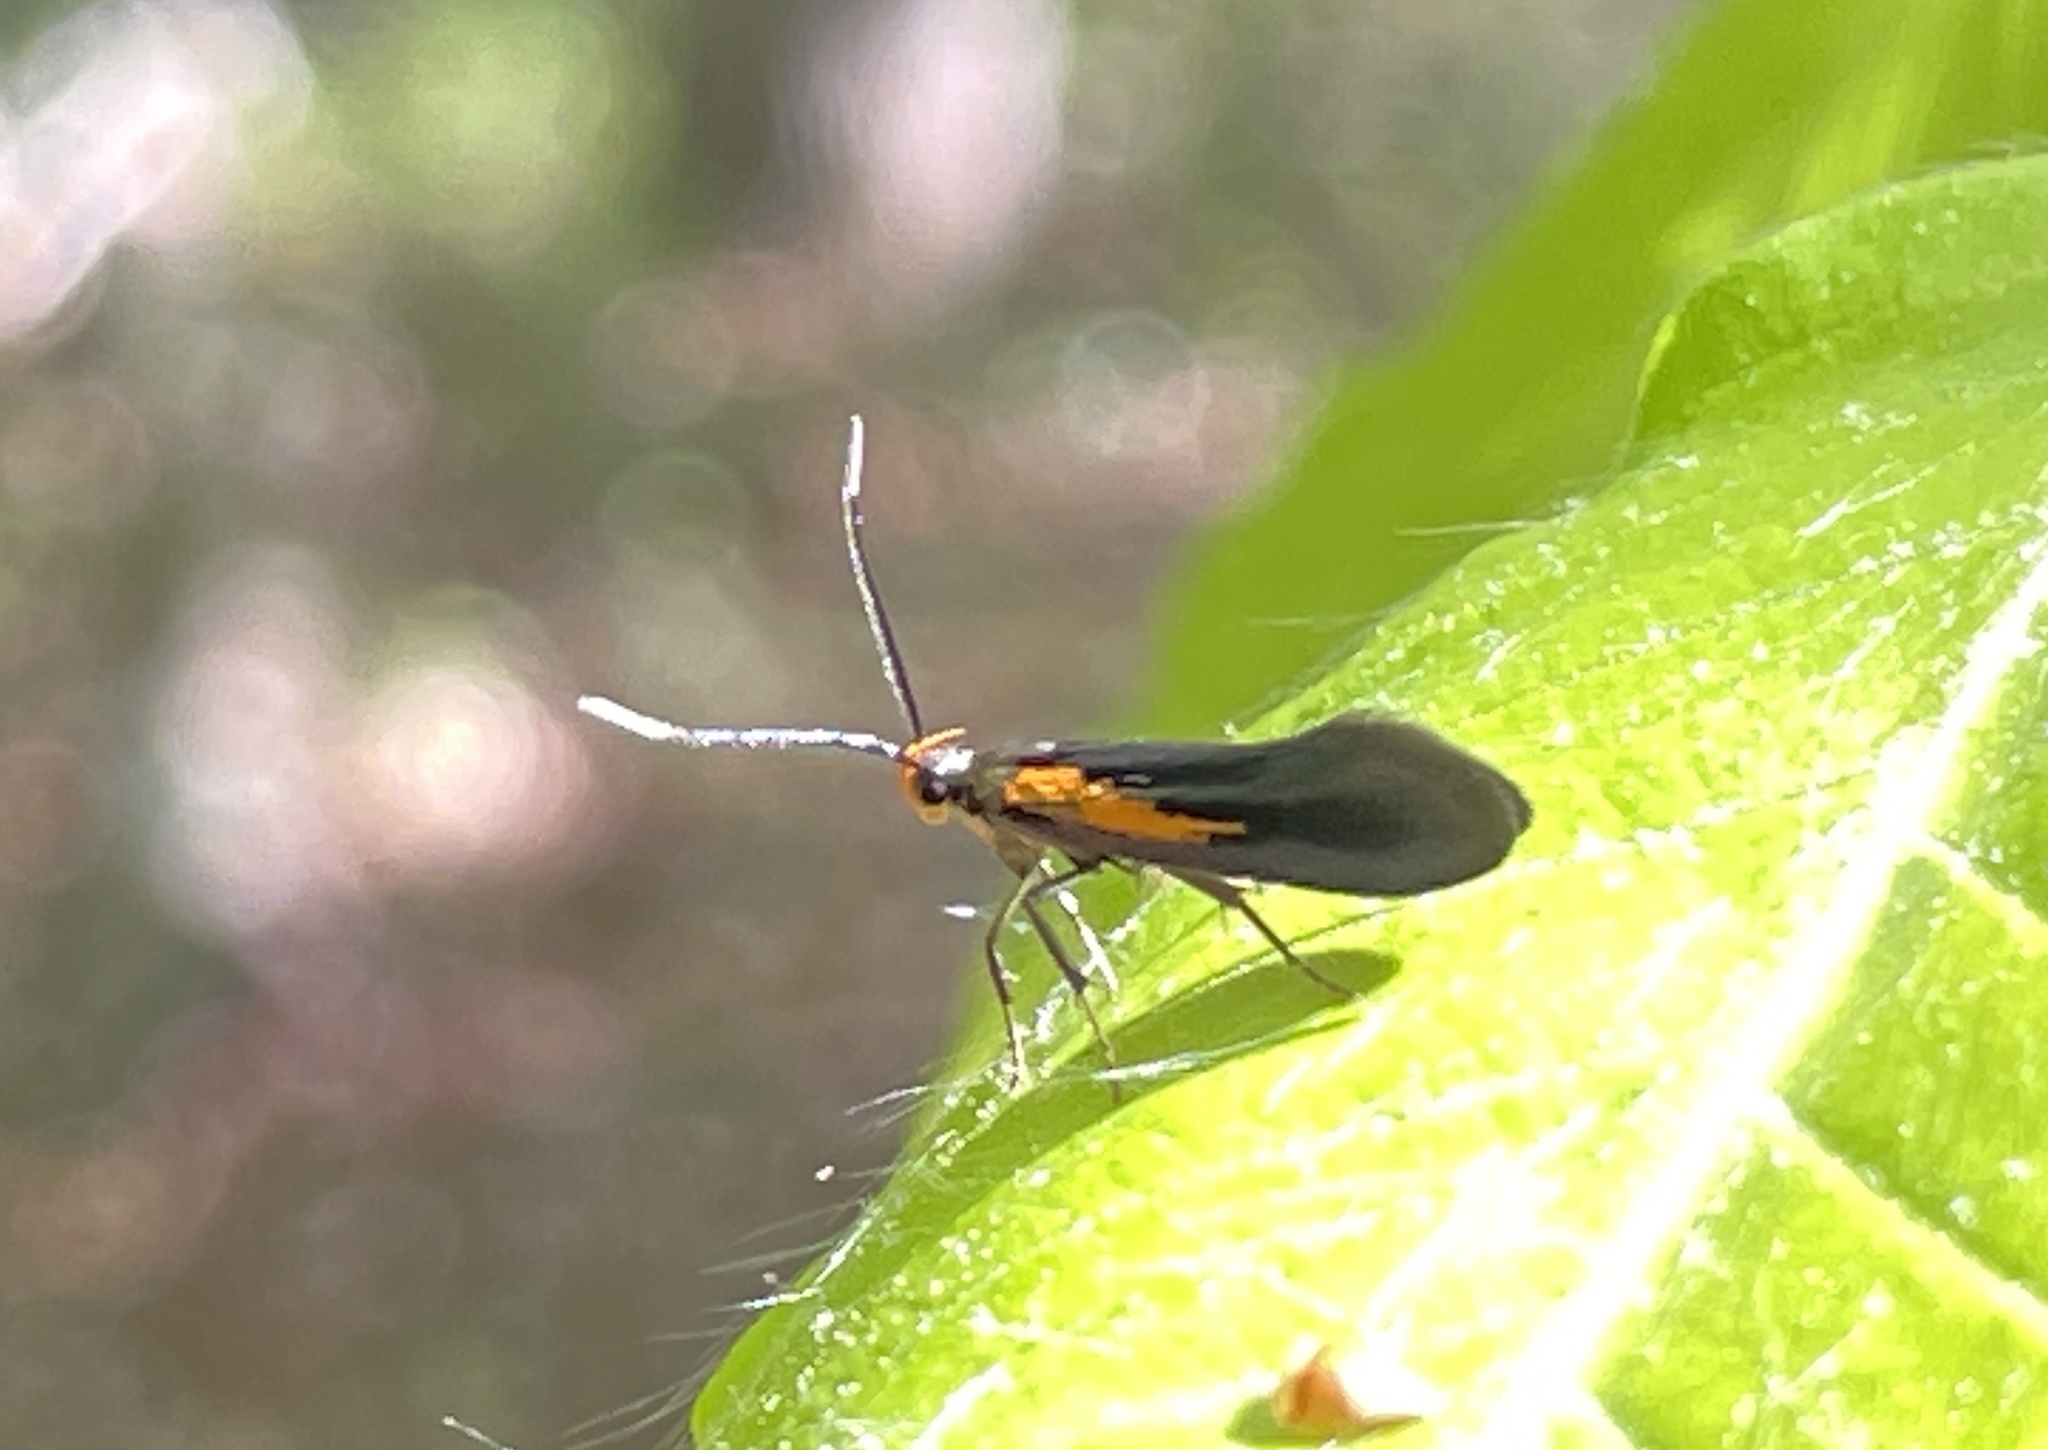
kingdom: Animalia
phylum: Arthropoda
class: Insecta
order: Lepidoptera
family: Oecophoridae
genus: Mathildana
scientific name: Mathildana newmanella
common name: Newman's mathildana moth
